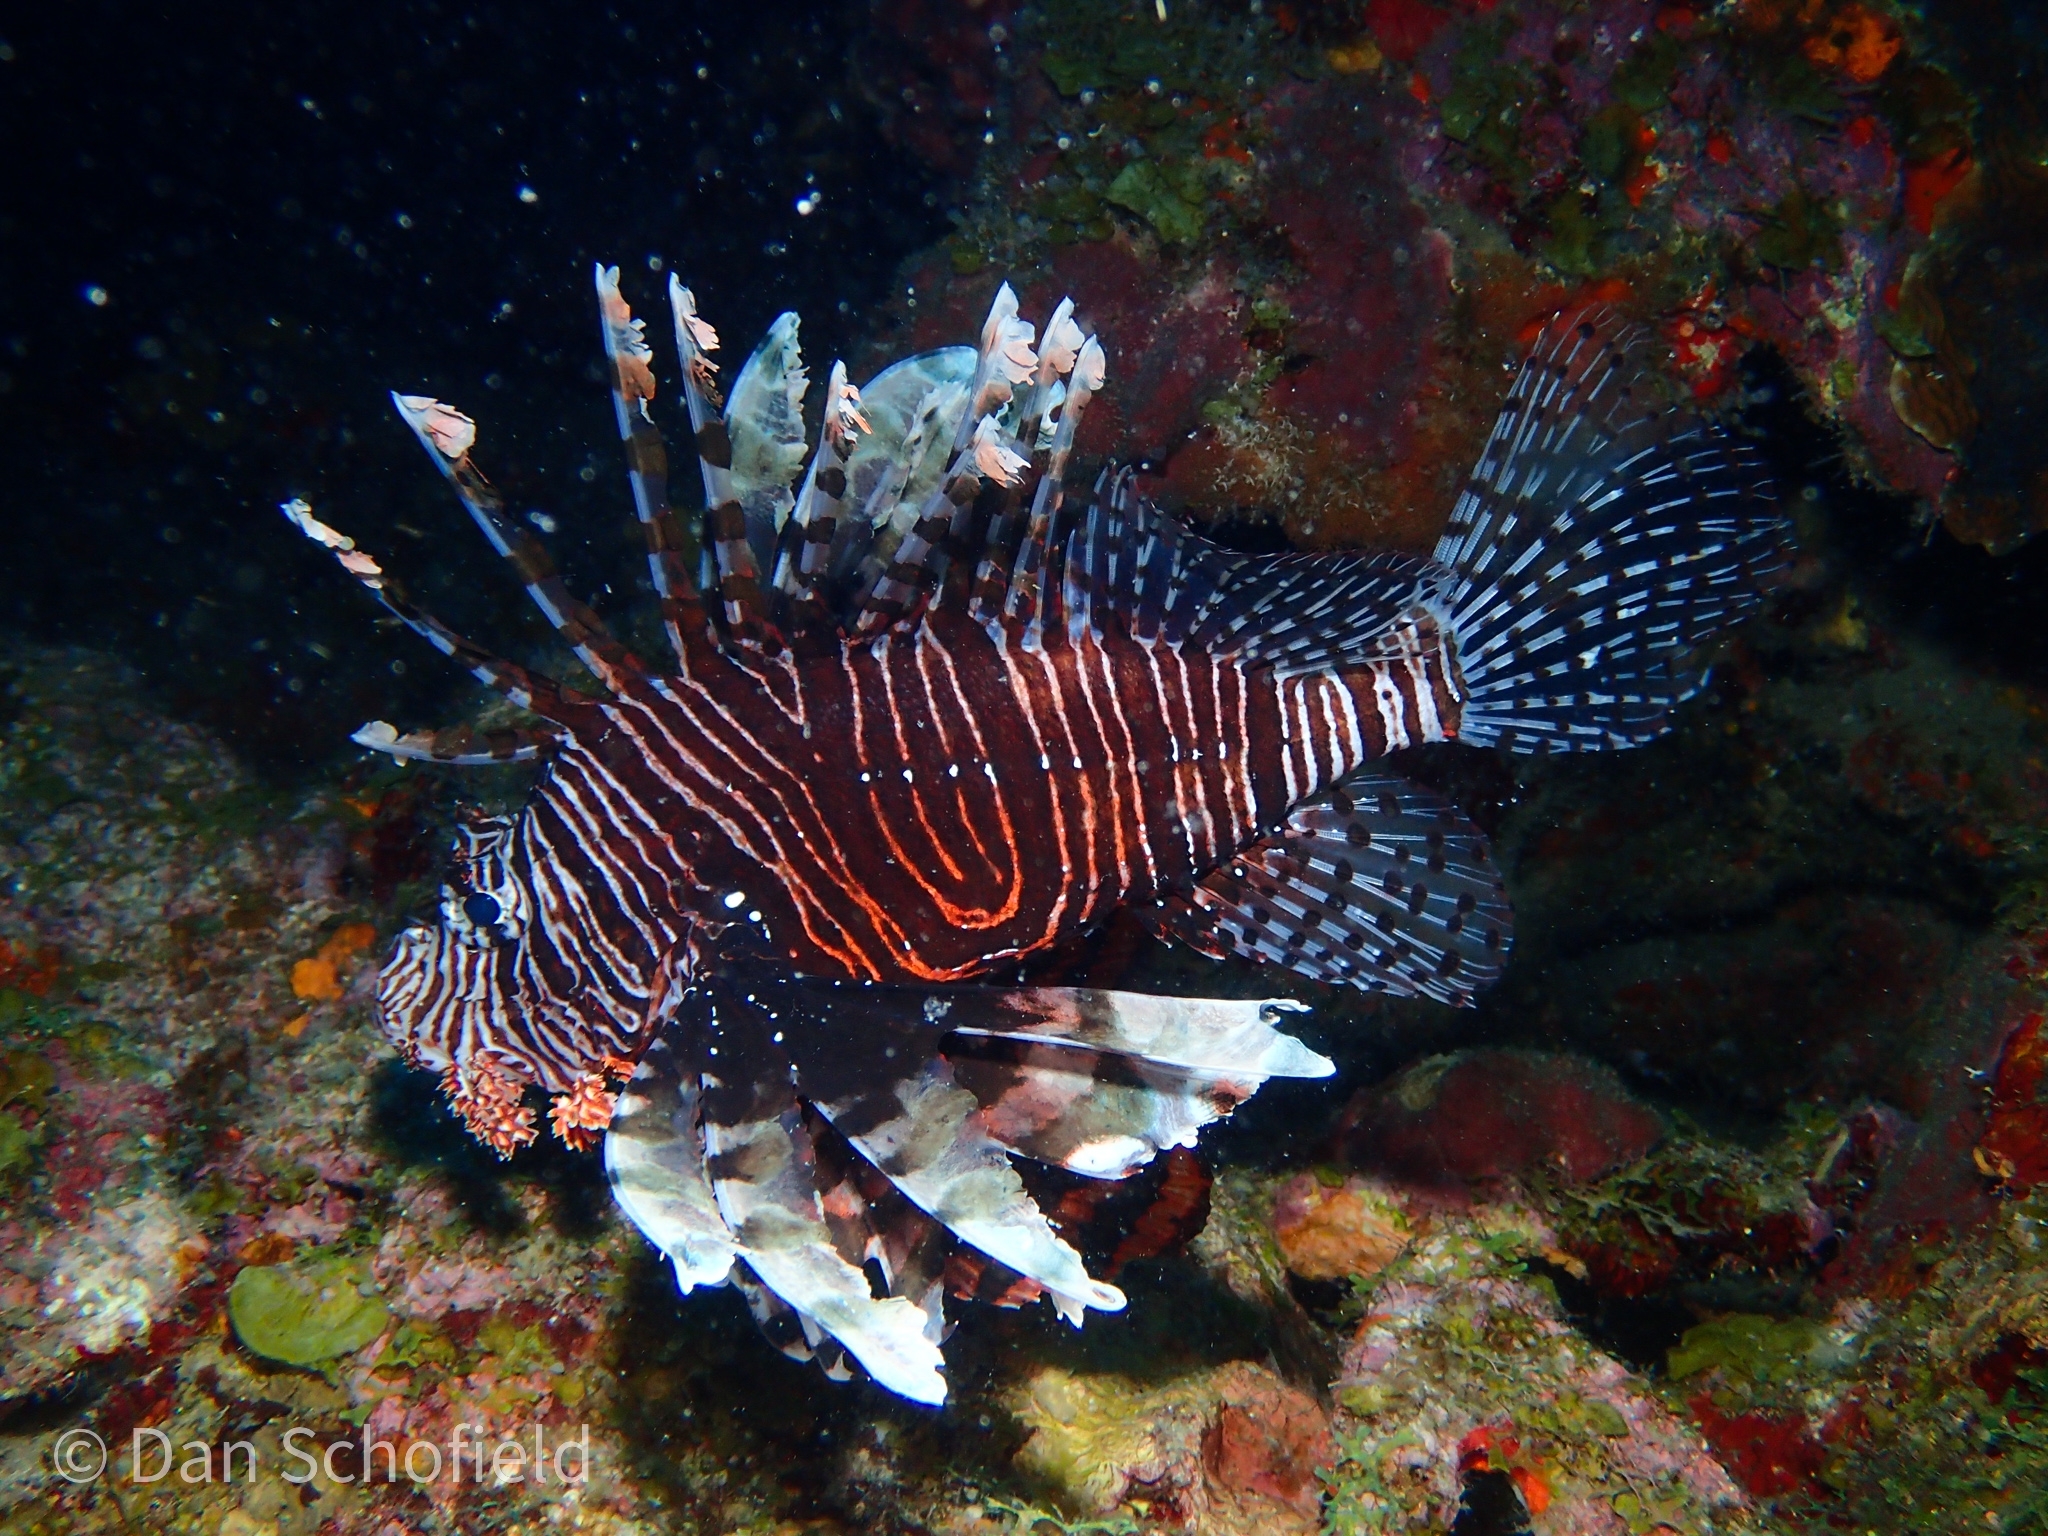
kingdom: Animalia
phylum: Chordata
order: Scorpaeniformes
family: Scorpaenidae
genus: Pterois
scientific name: Pterois volitans
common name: Lionfish
